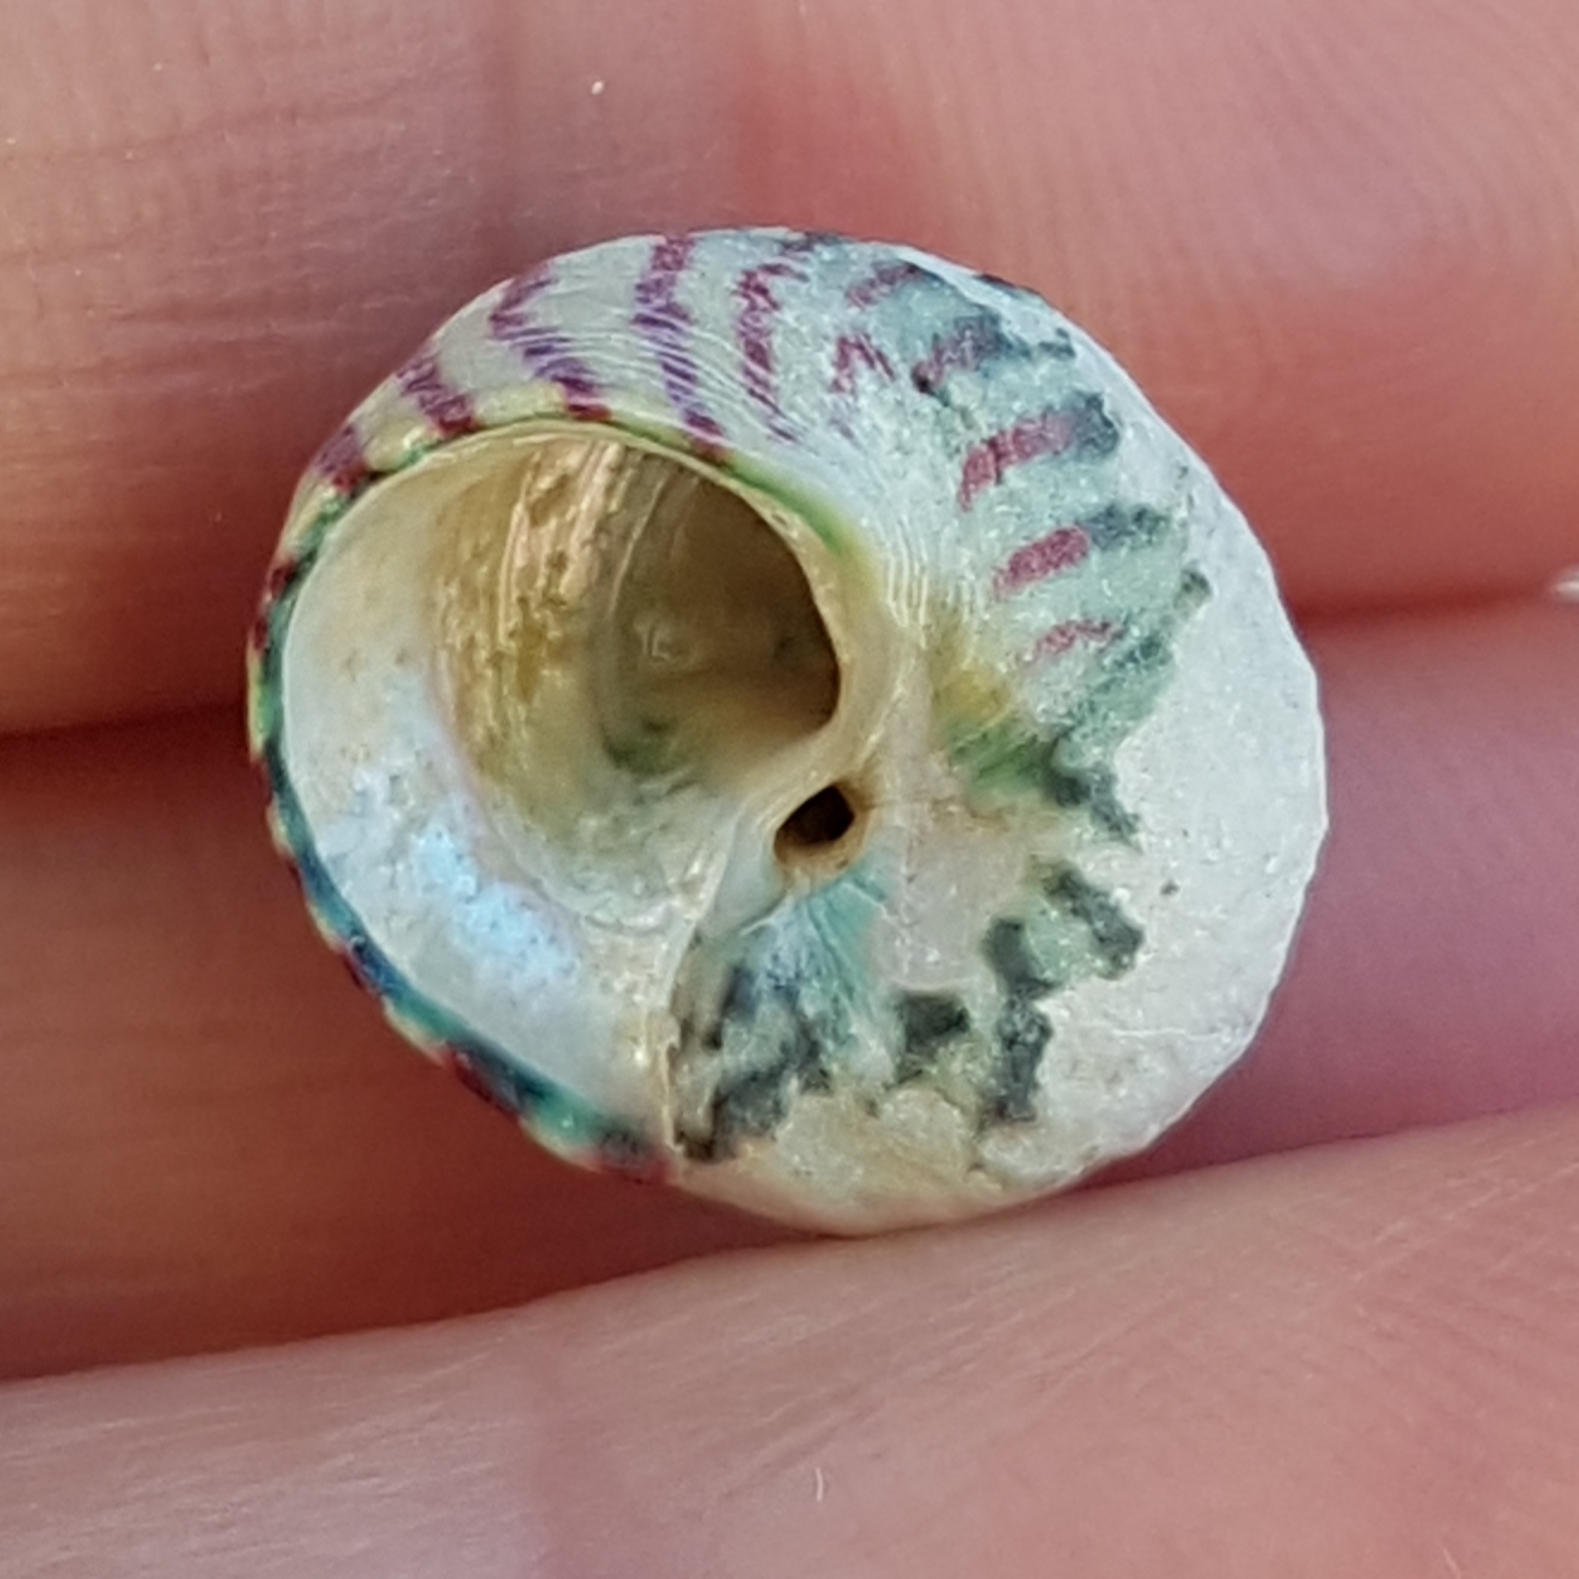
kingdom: Animalia
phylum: Mollusca
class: Gastropoda
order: Trochida
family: Trochidae
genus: Steromphala
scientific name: Steromphala umbilicalis
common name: Flat top shell
